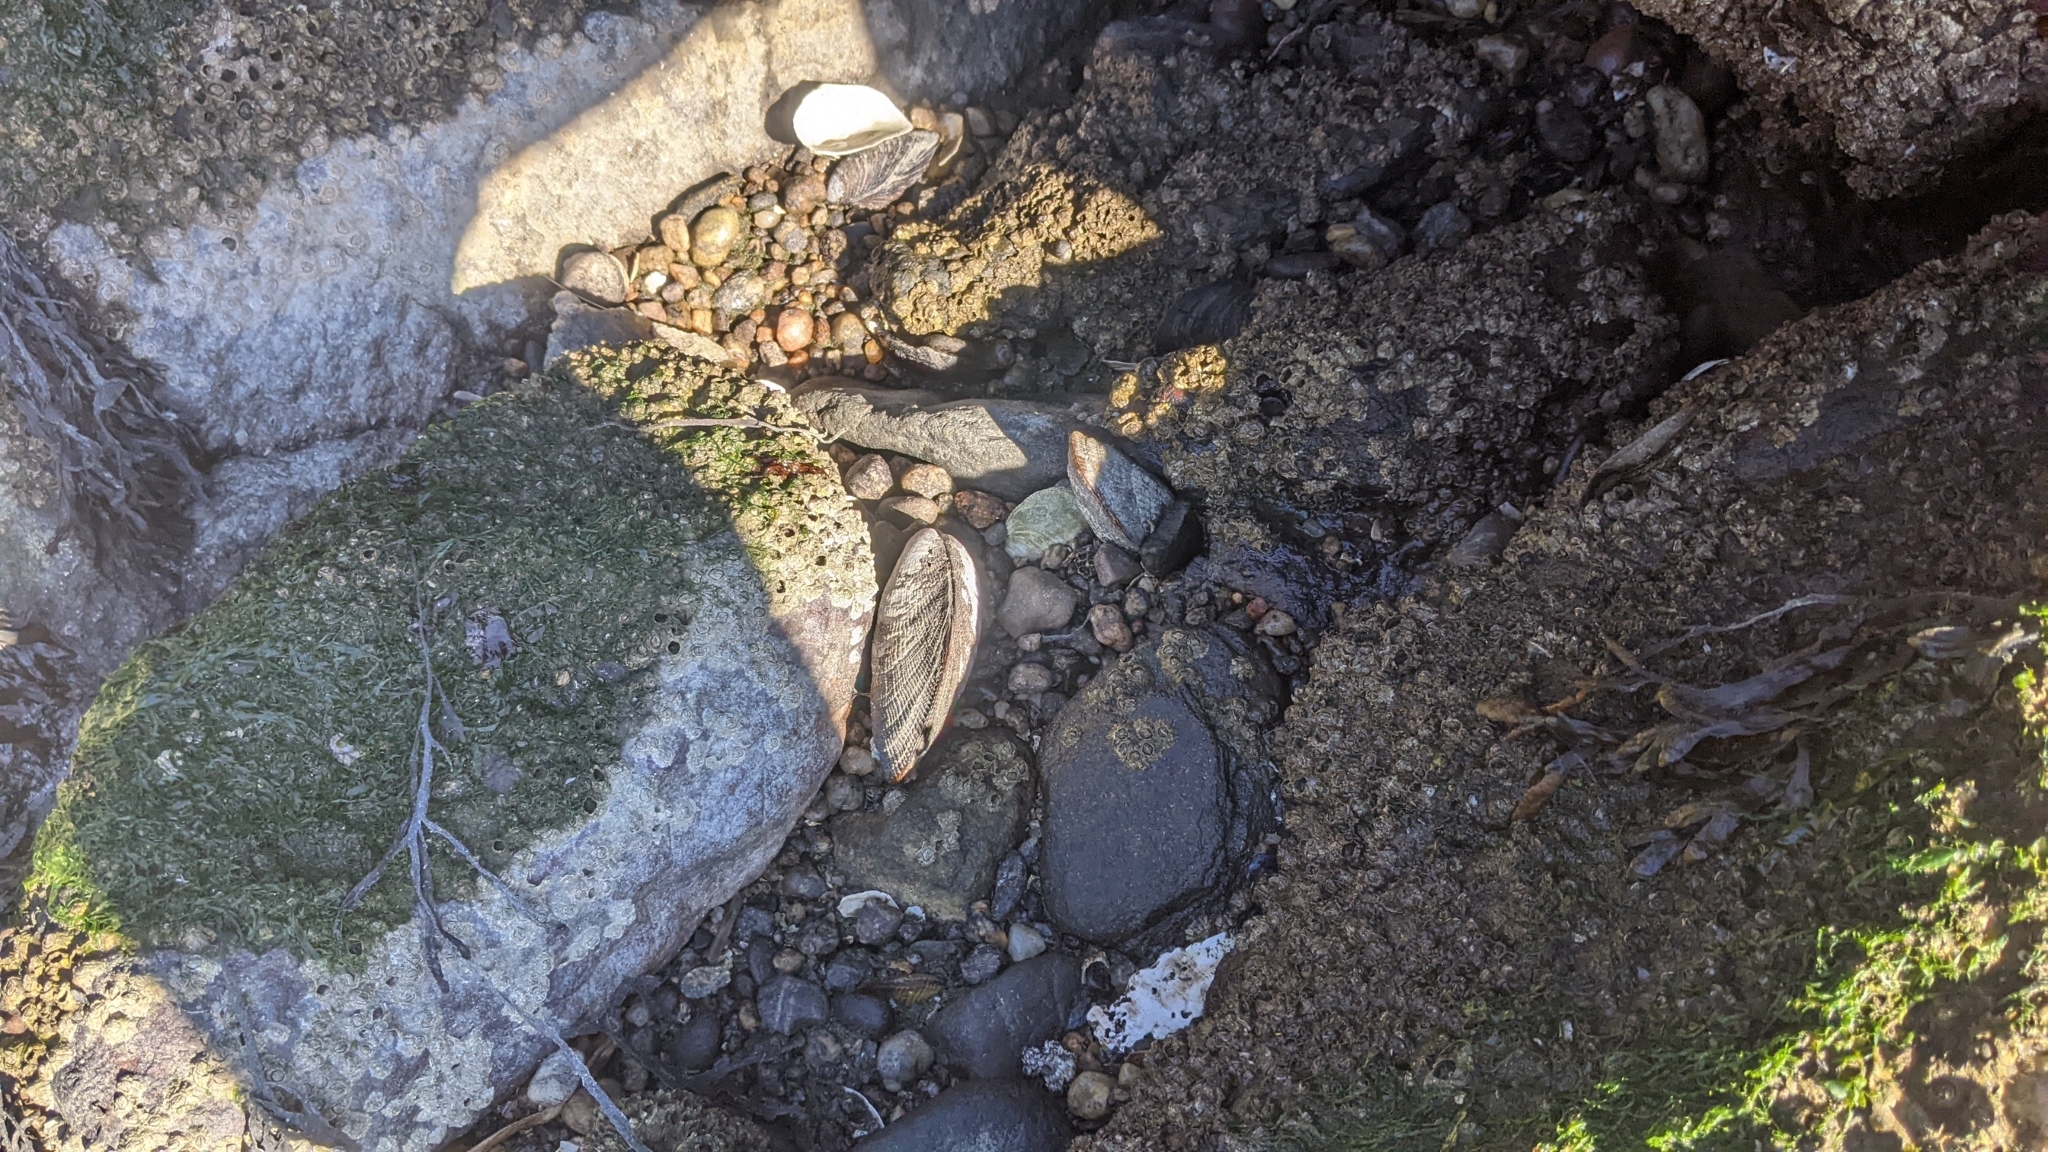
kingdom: Animalia
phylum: Mollusca
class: Bivalvia
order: Mytilida
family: Mytilidae
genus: Geukensia
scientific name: Geukensia demissa
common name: Ribbed mussel
